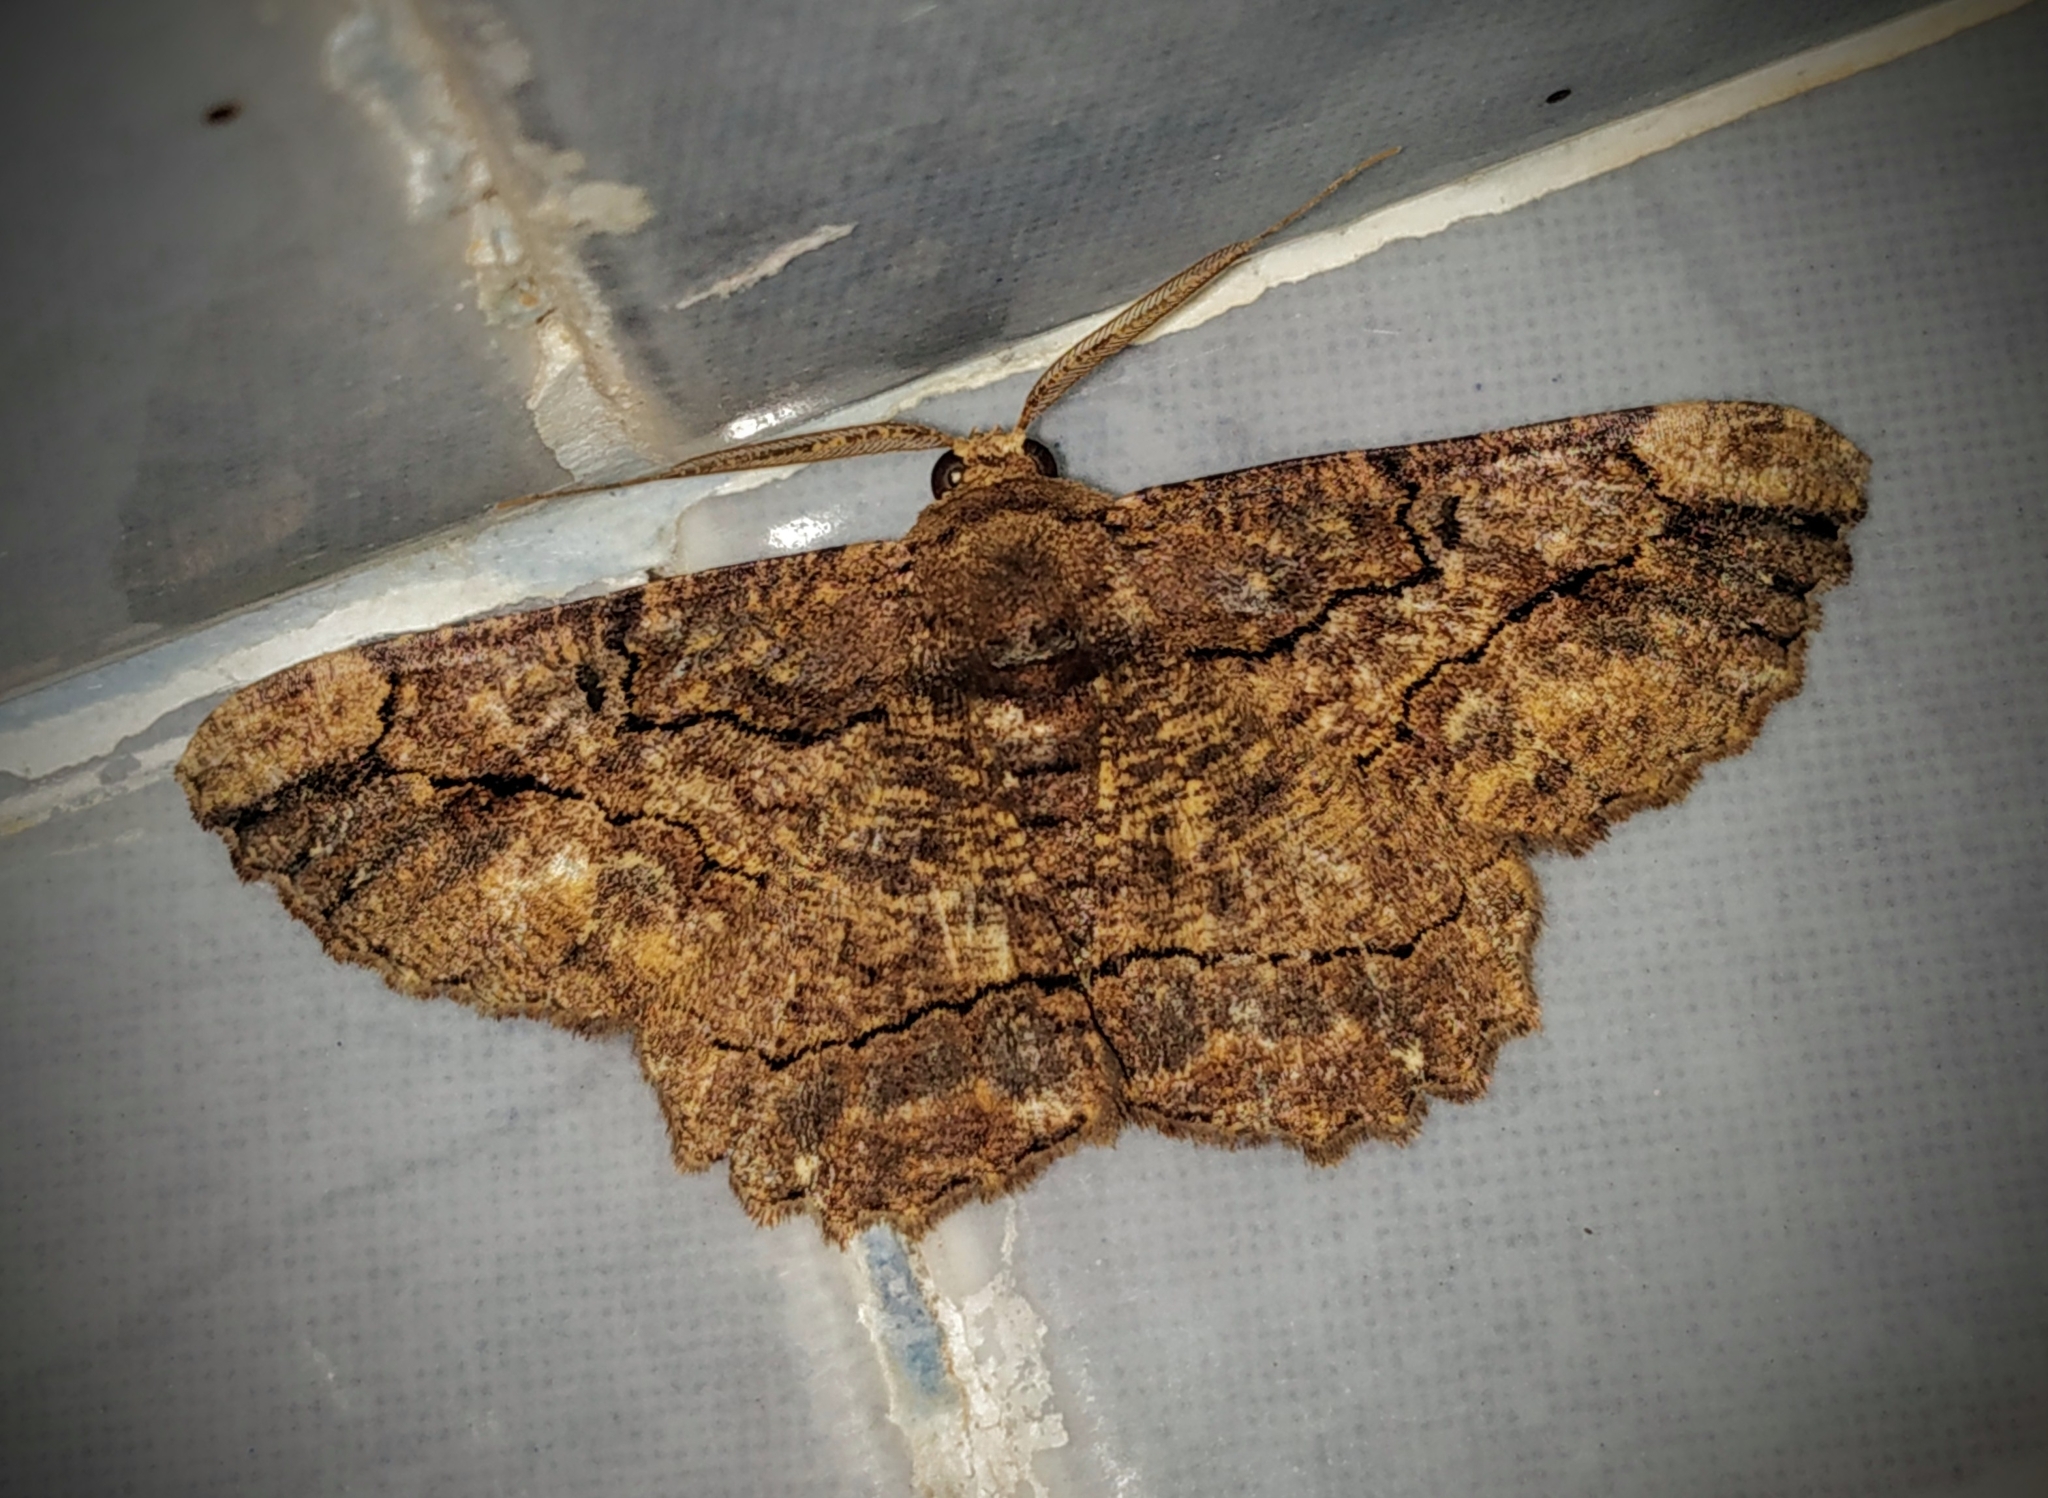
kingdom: Animalia
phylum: Arthropoda
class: Insecta
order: Lepidoptera
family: Geometridae
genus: Dasyboarmia
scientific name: Dasyboarmia delineata
